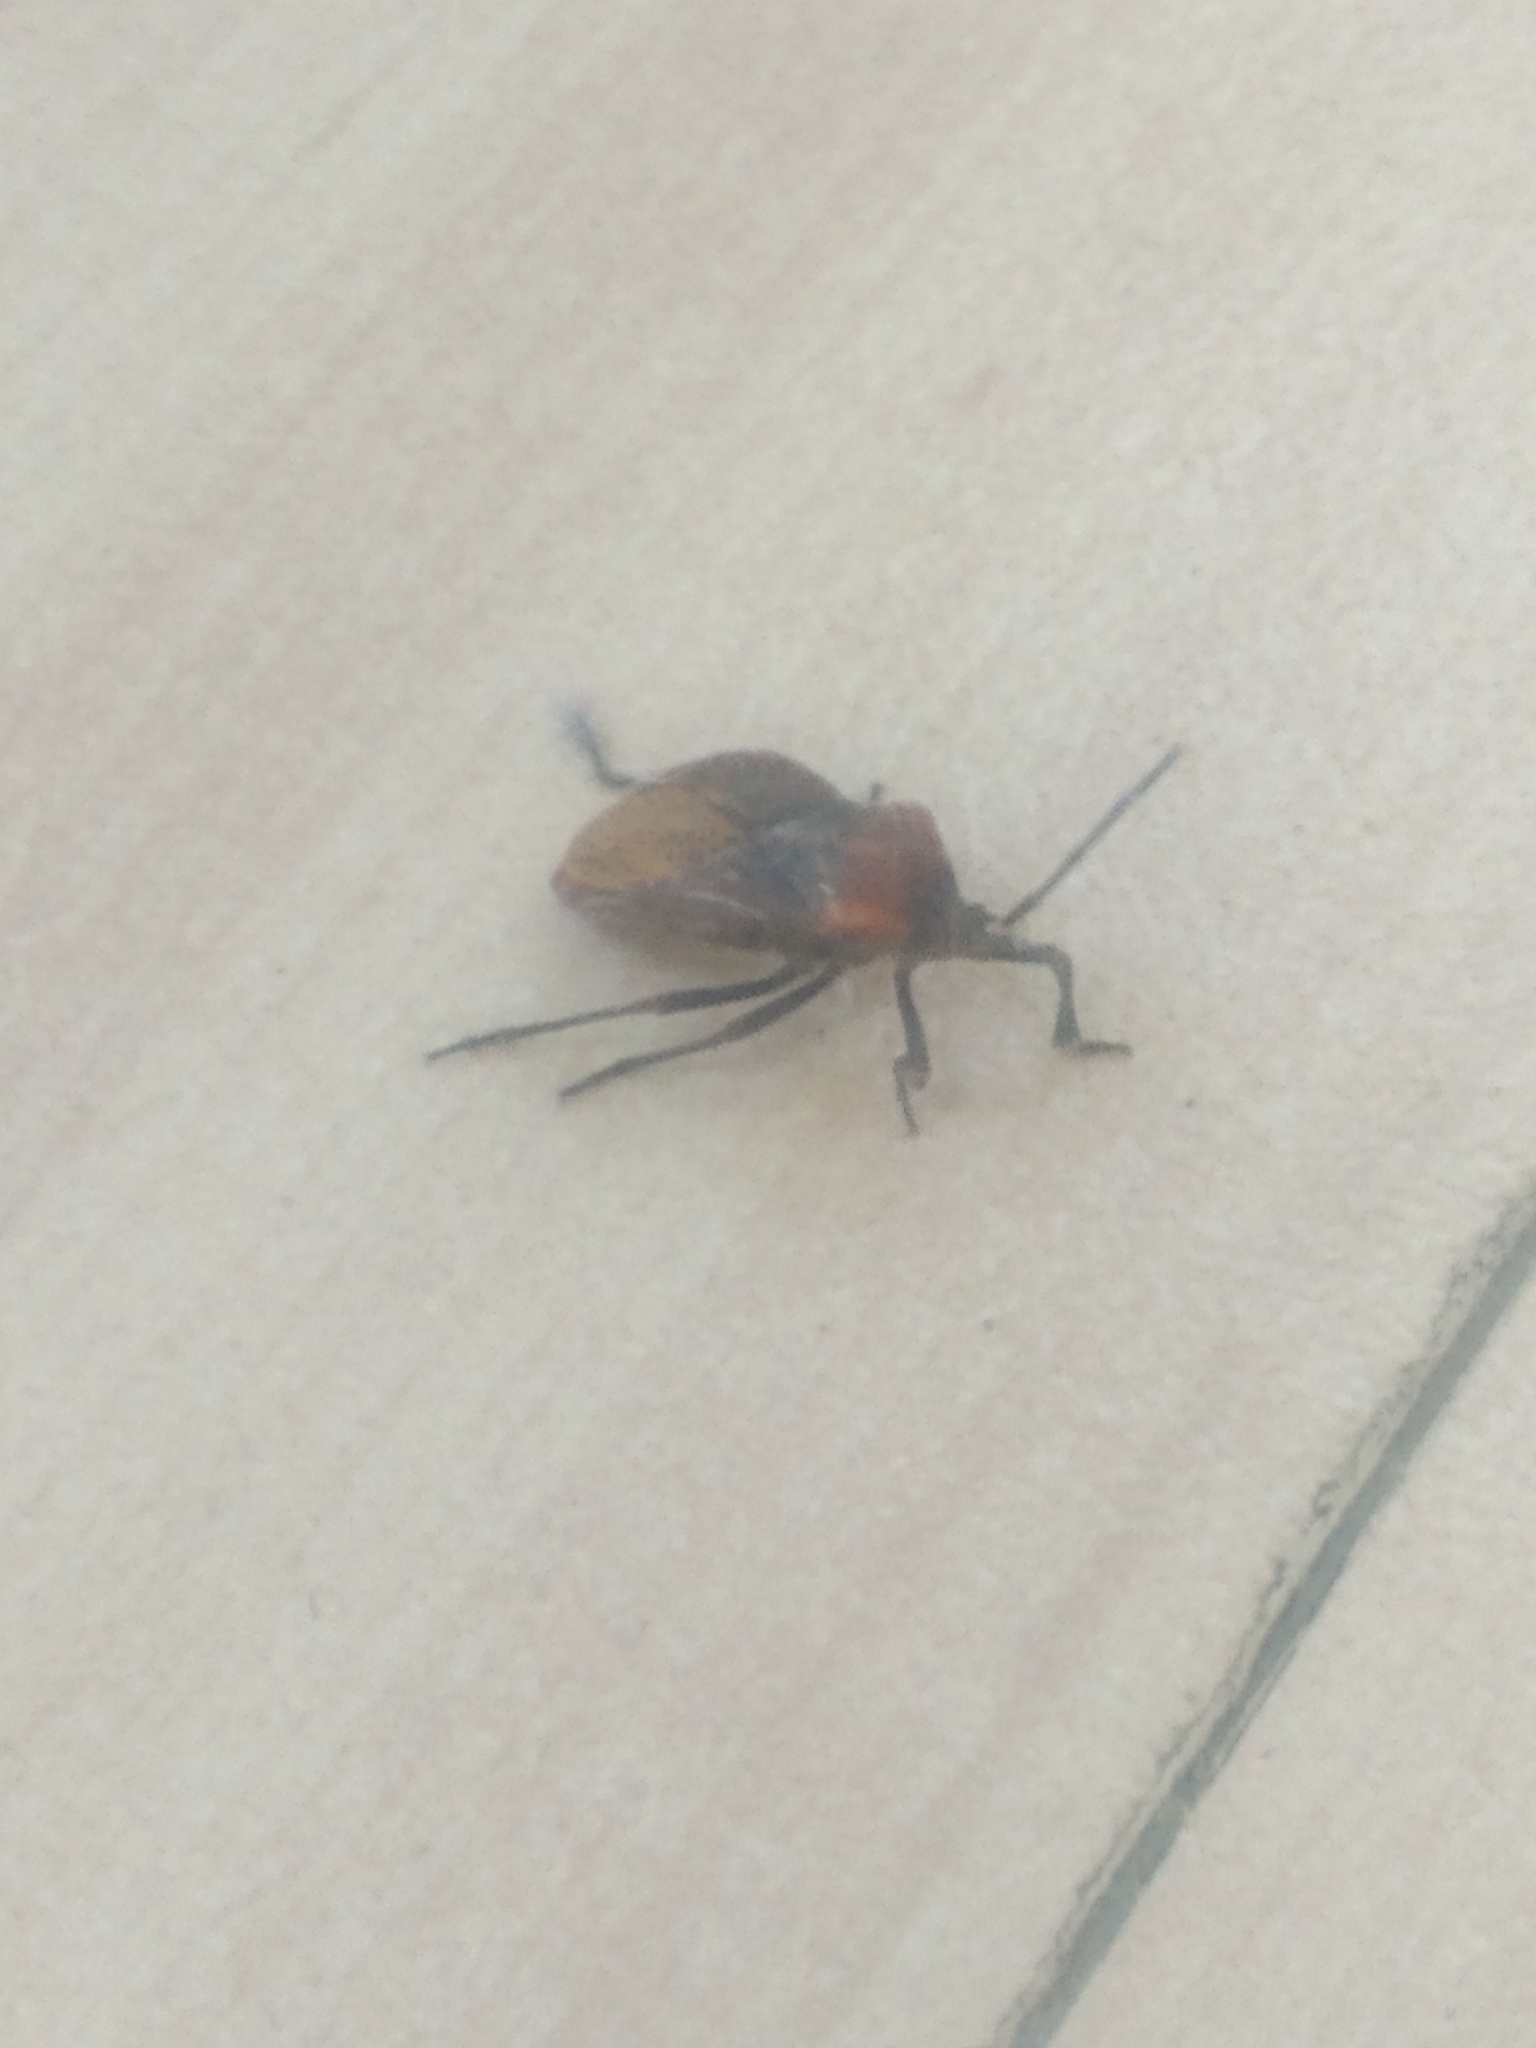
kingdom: Animalia
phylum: Arthropoda
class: Insecta
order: Hemiptera
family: Coreidae
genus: Spartocera
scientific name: Spartocera batatas
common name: Giant sweetpotato bug
